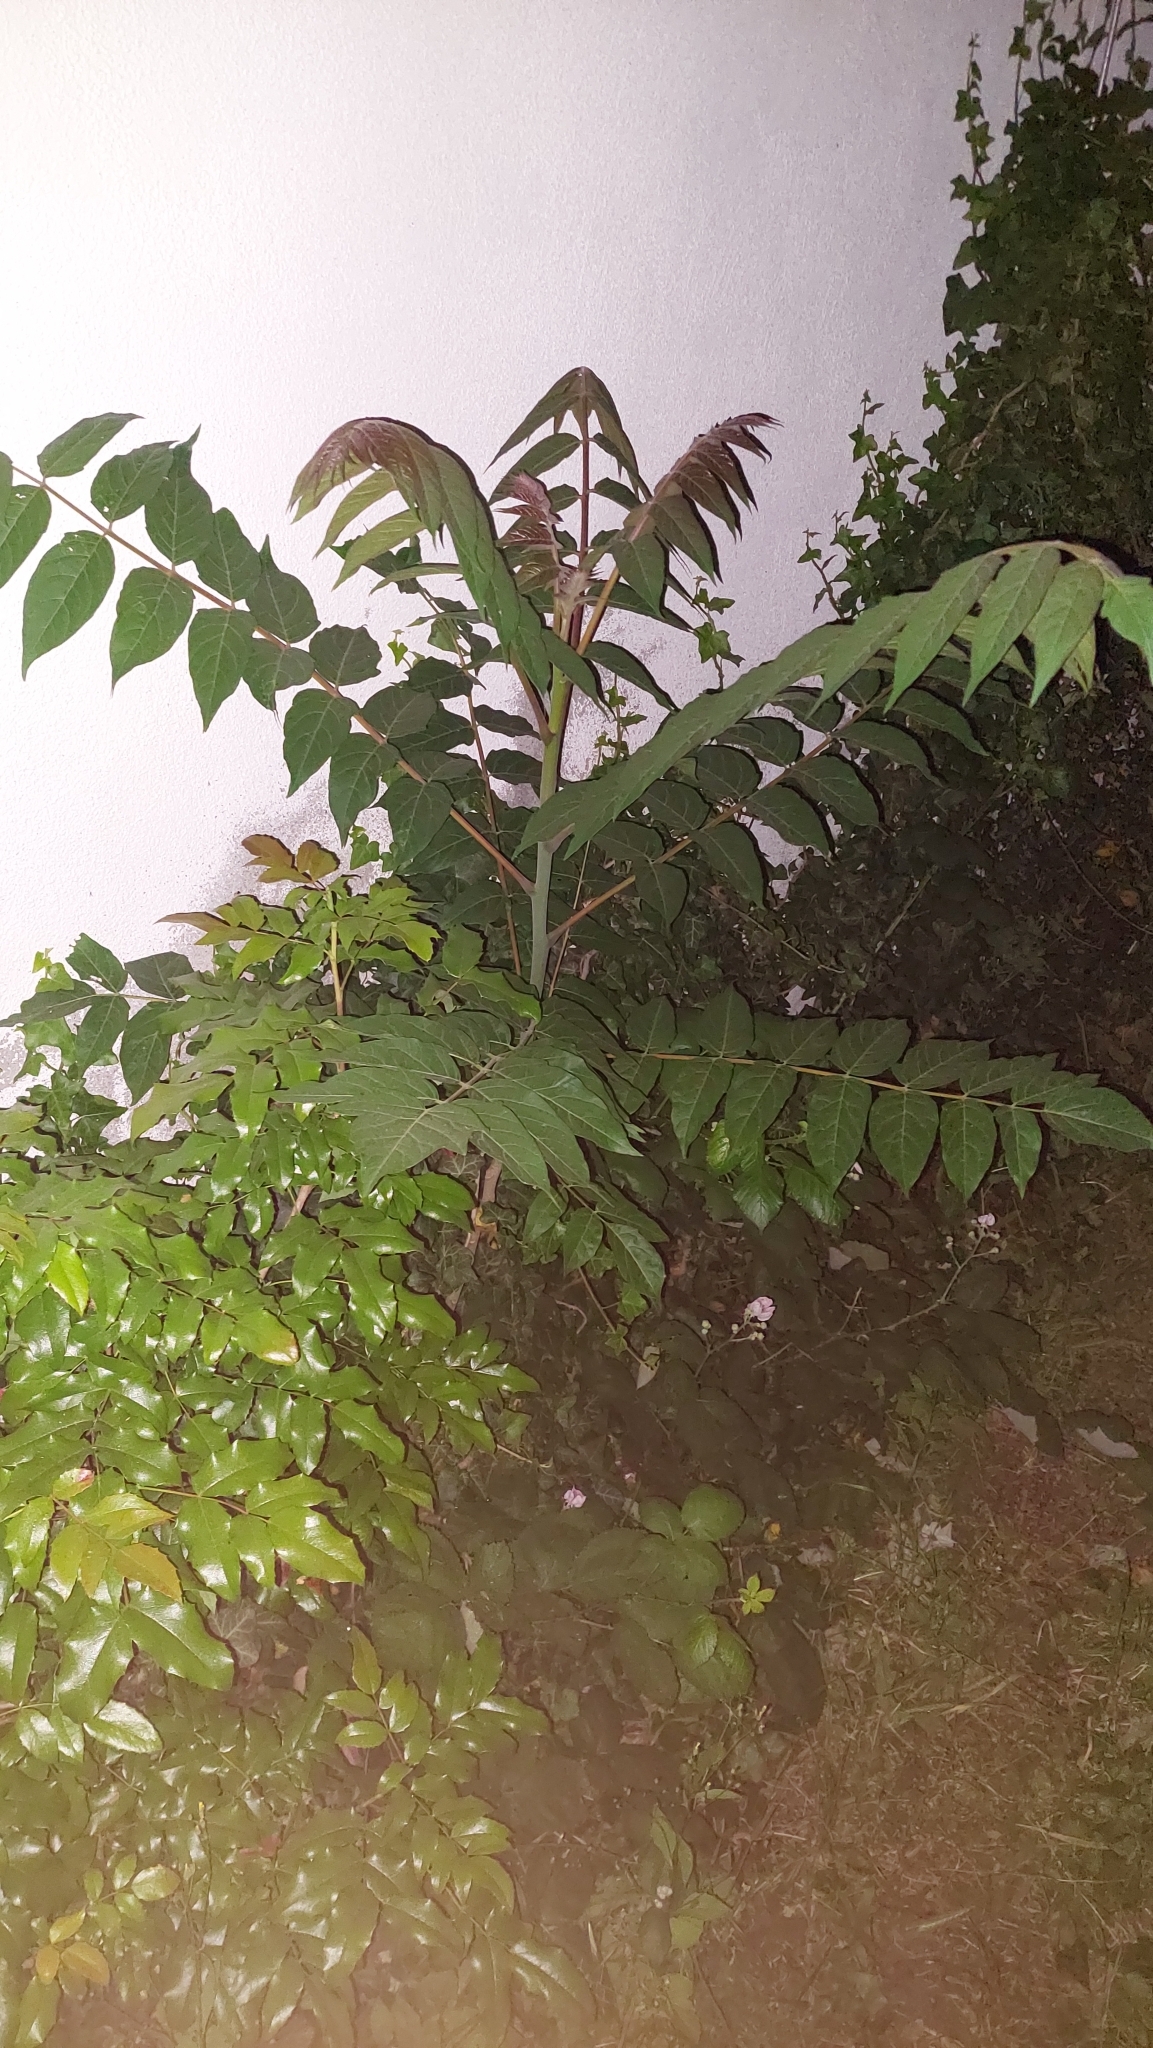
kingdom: Plantae
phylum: Tracheophyta
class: Magnoliopsida
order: Sapindales
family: Simaroubaceae
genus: Ailanthus
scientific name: Ailanthus altissima
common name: Tree-of-heaven
